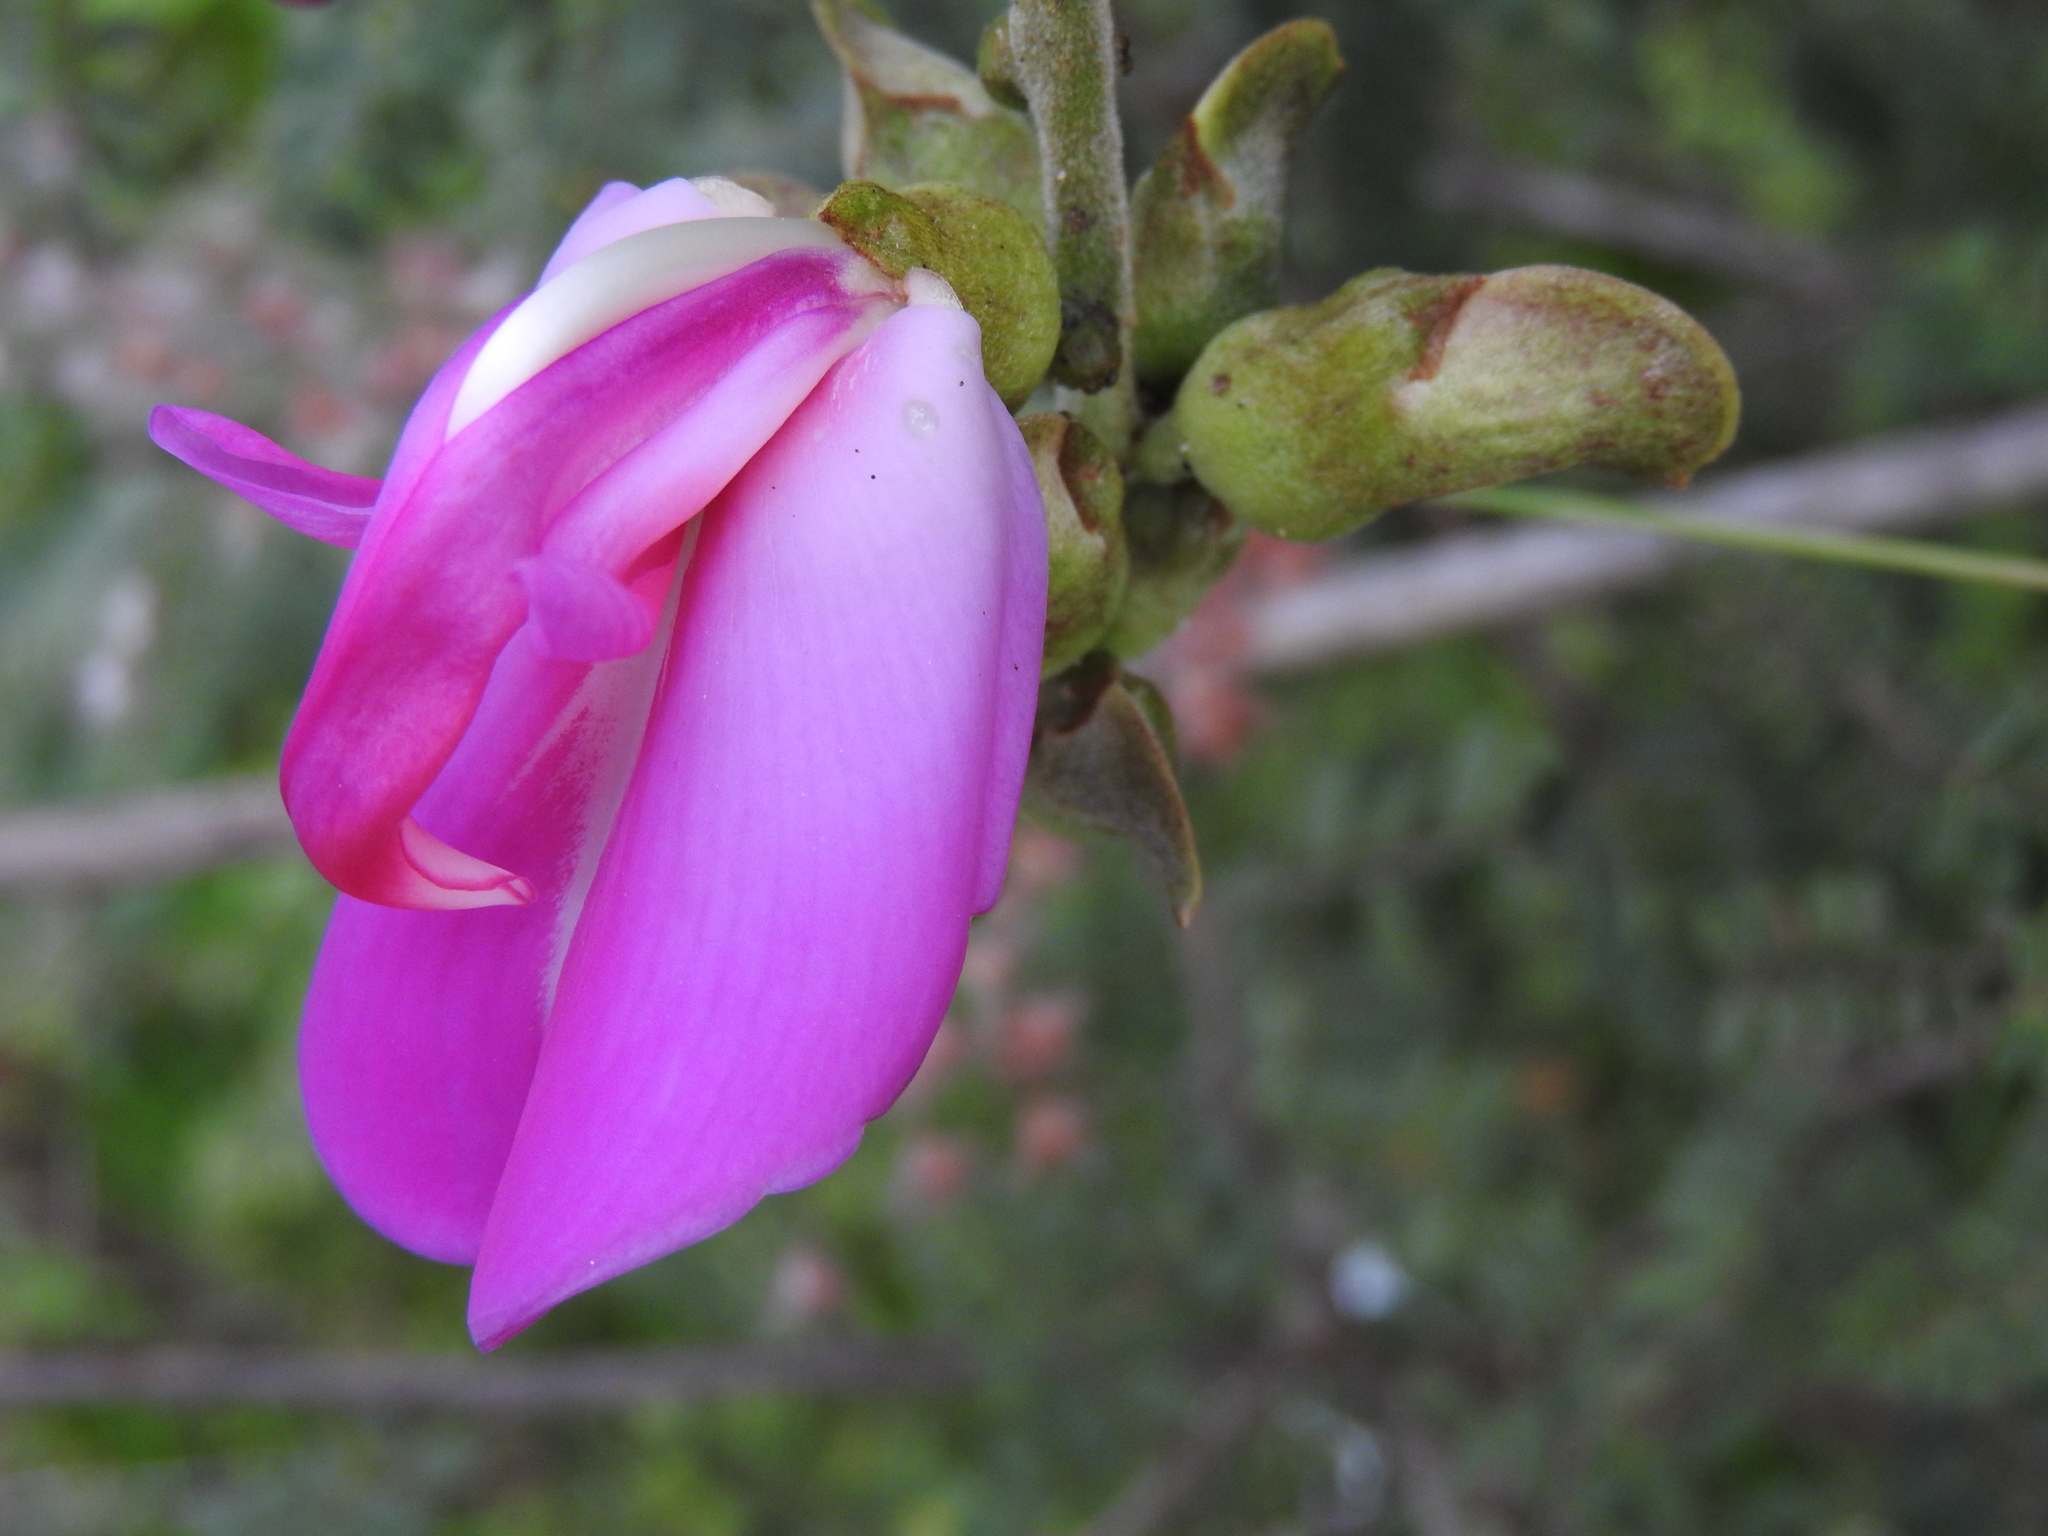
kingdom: Plantae
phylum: Tracheophyta
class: Magnoliopsida
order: Fabales
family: Fabaceae
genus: Canavalia
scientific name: Canavalia villosa
